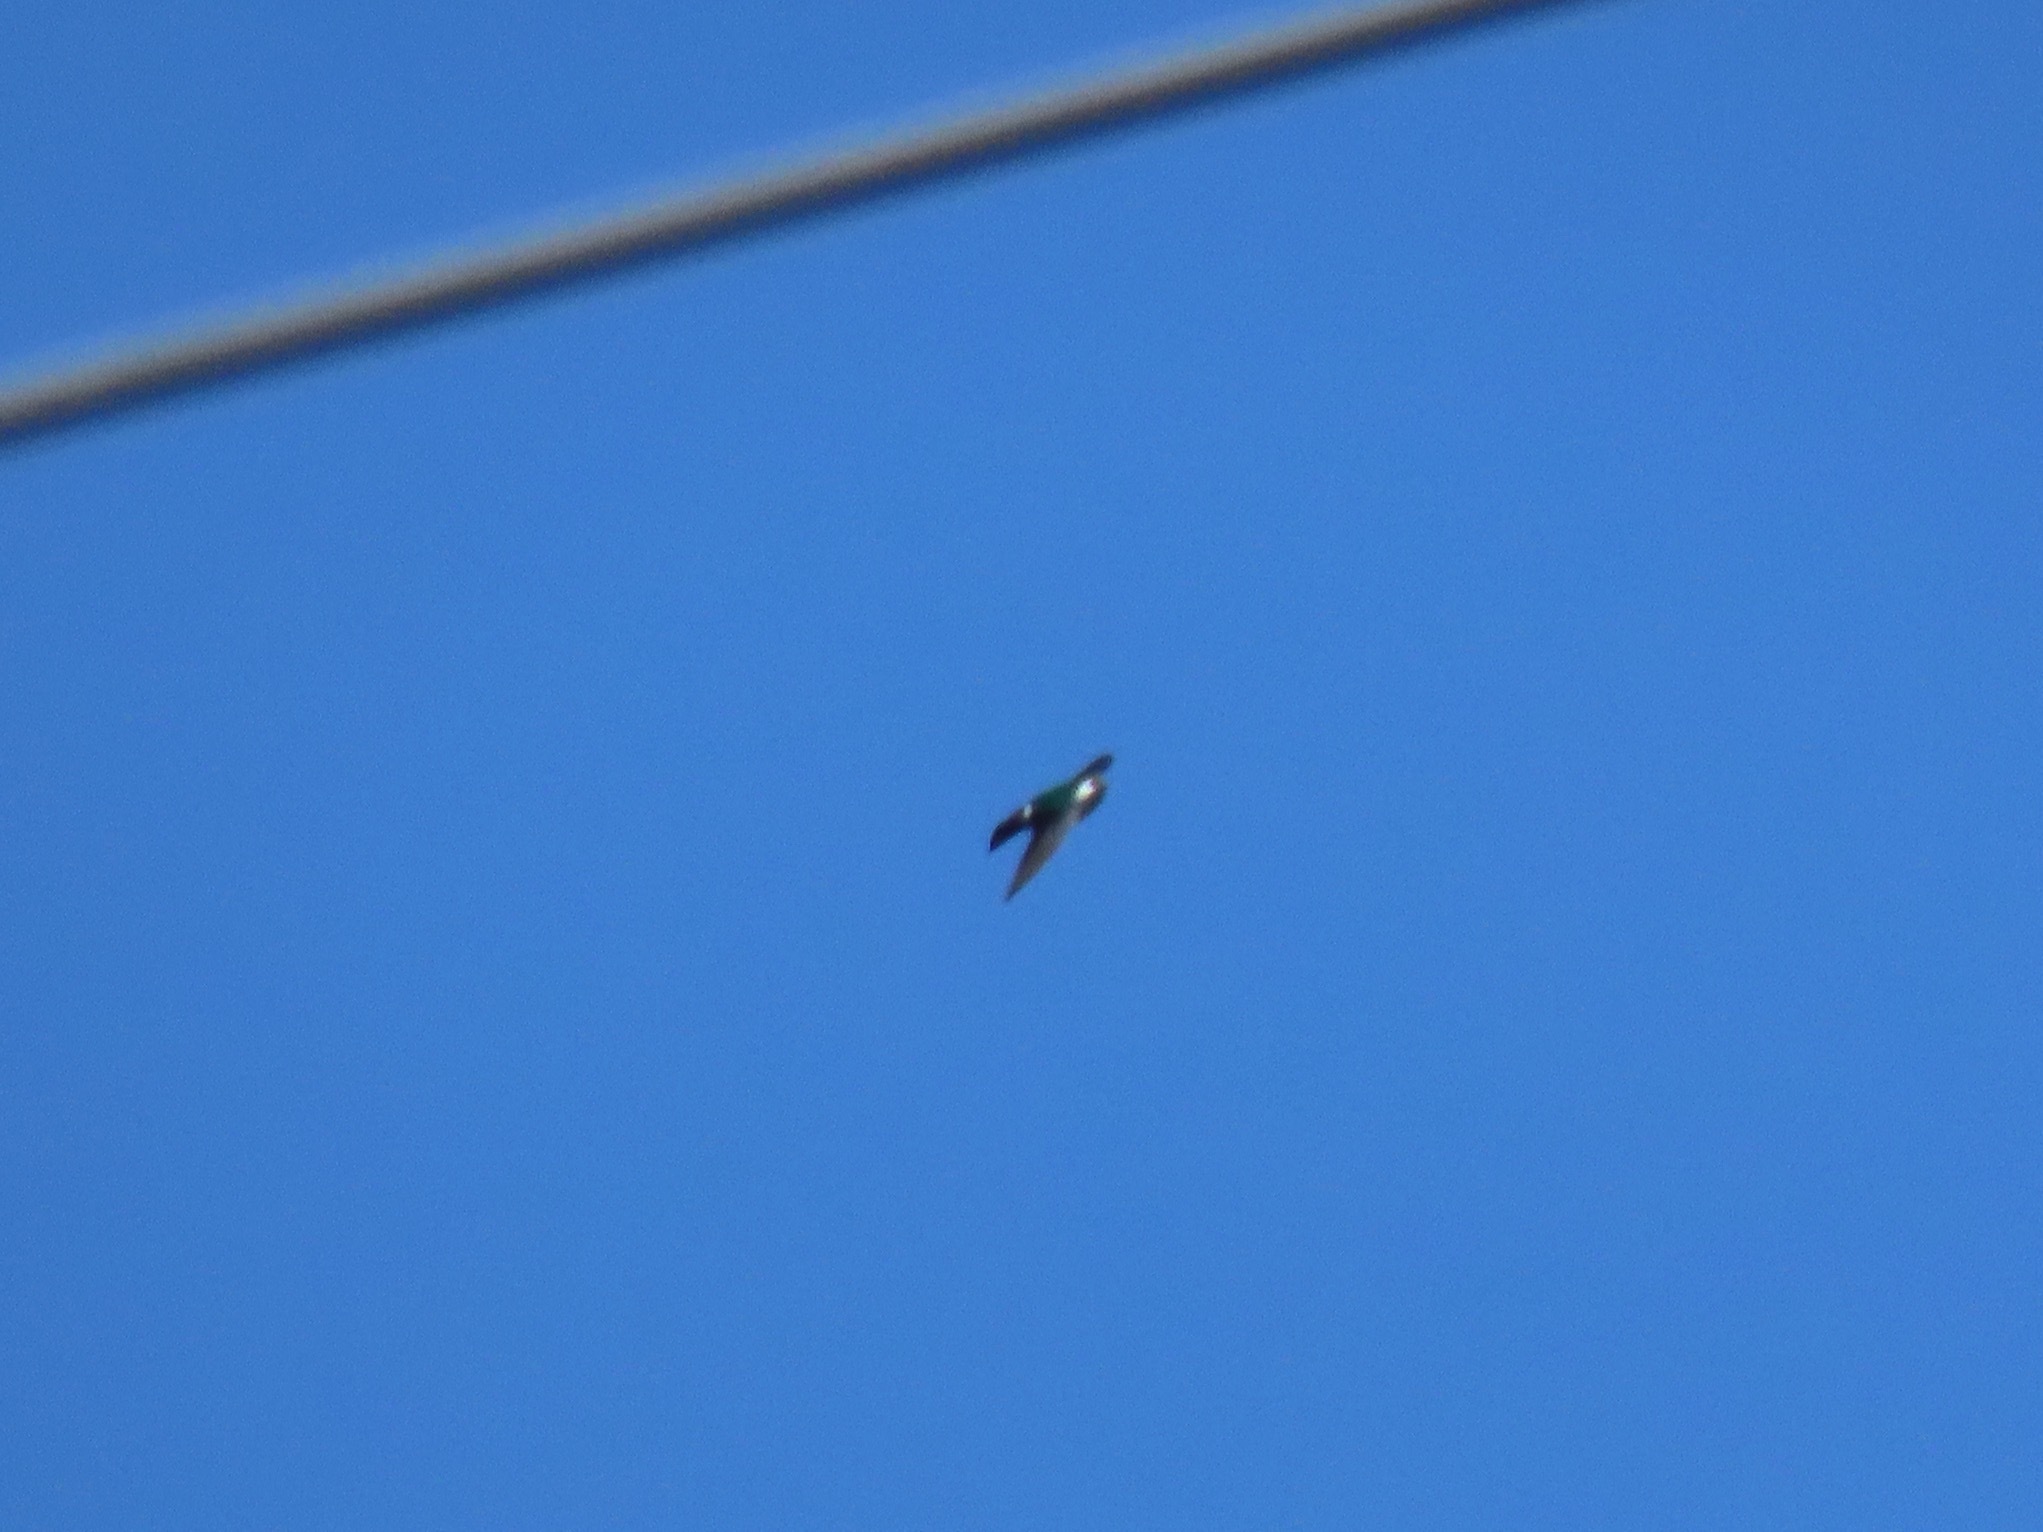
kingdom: Animalia
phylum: Chordata
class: Aves
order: Passeriformes
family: Hirundinidae
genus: Tachycineta
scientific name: Tachycineta thalassina
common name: Violet-green swallow
